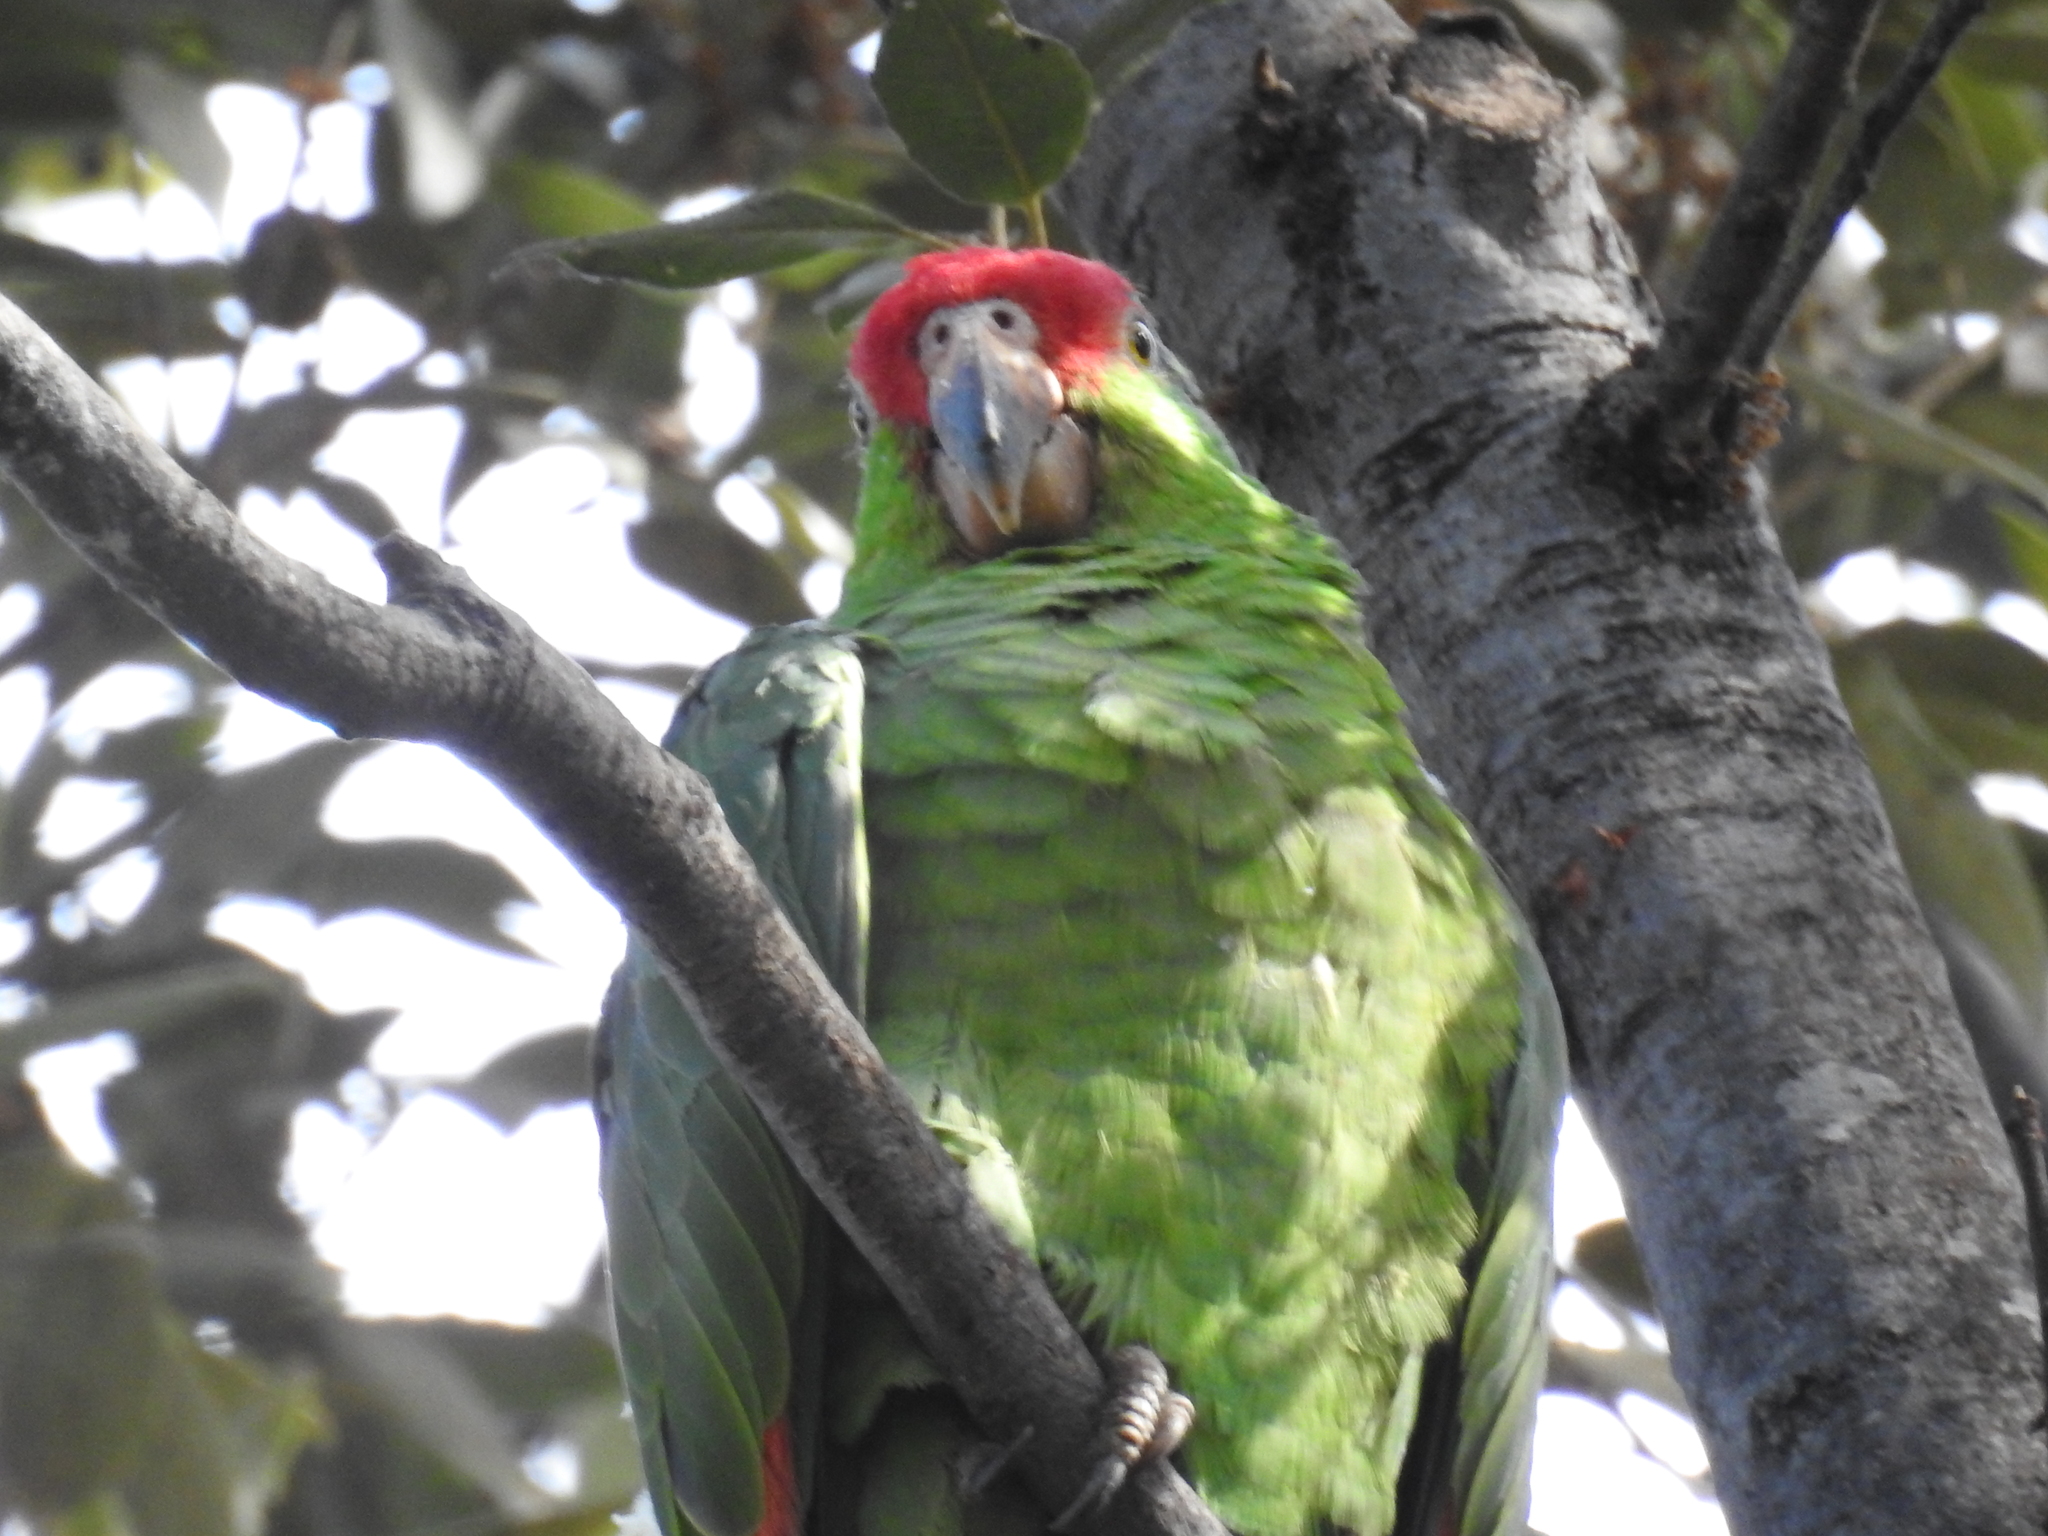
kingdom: Animalia
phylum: Chordata
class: Aves
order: Psittaciformes
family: Psittacidae
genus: Amazona
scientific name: Amazona viridigenalis
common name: Red-crowned amazon
